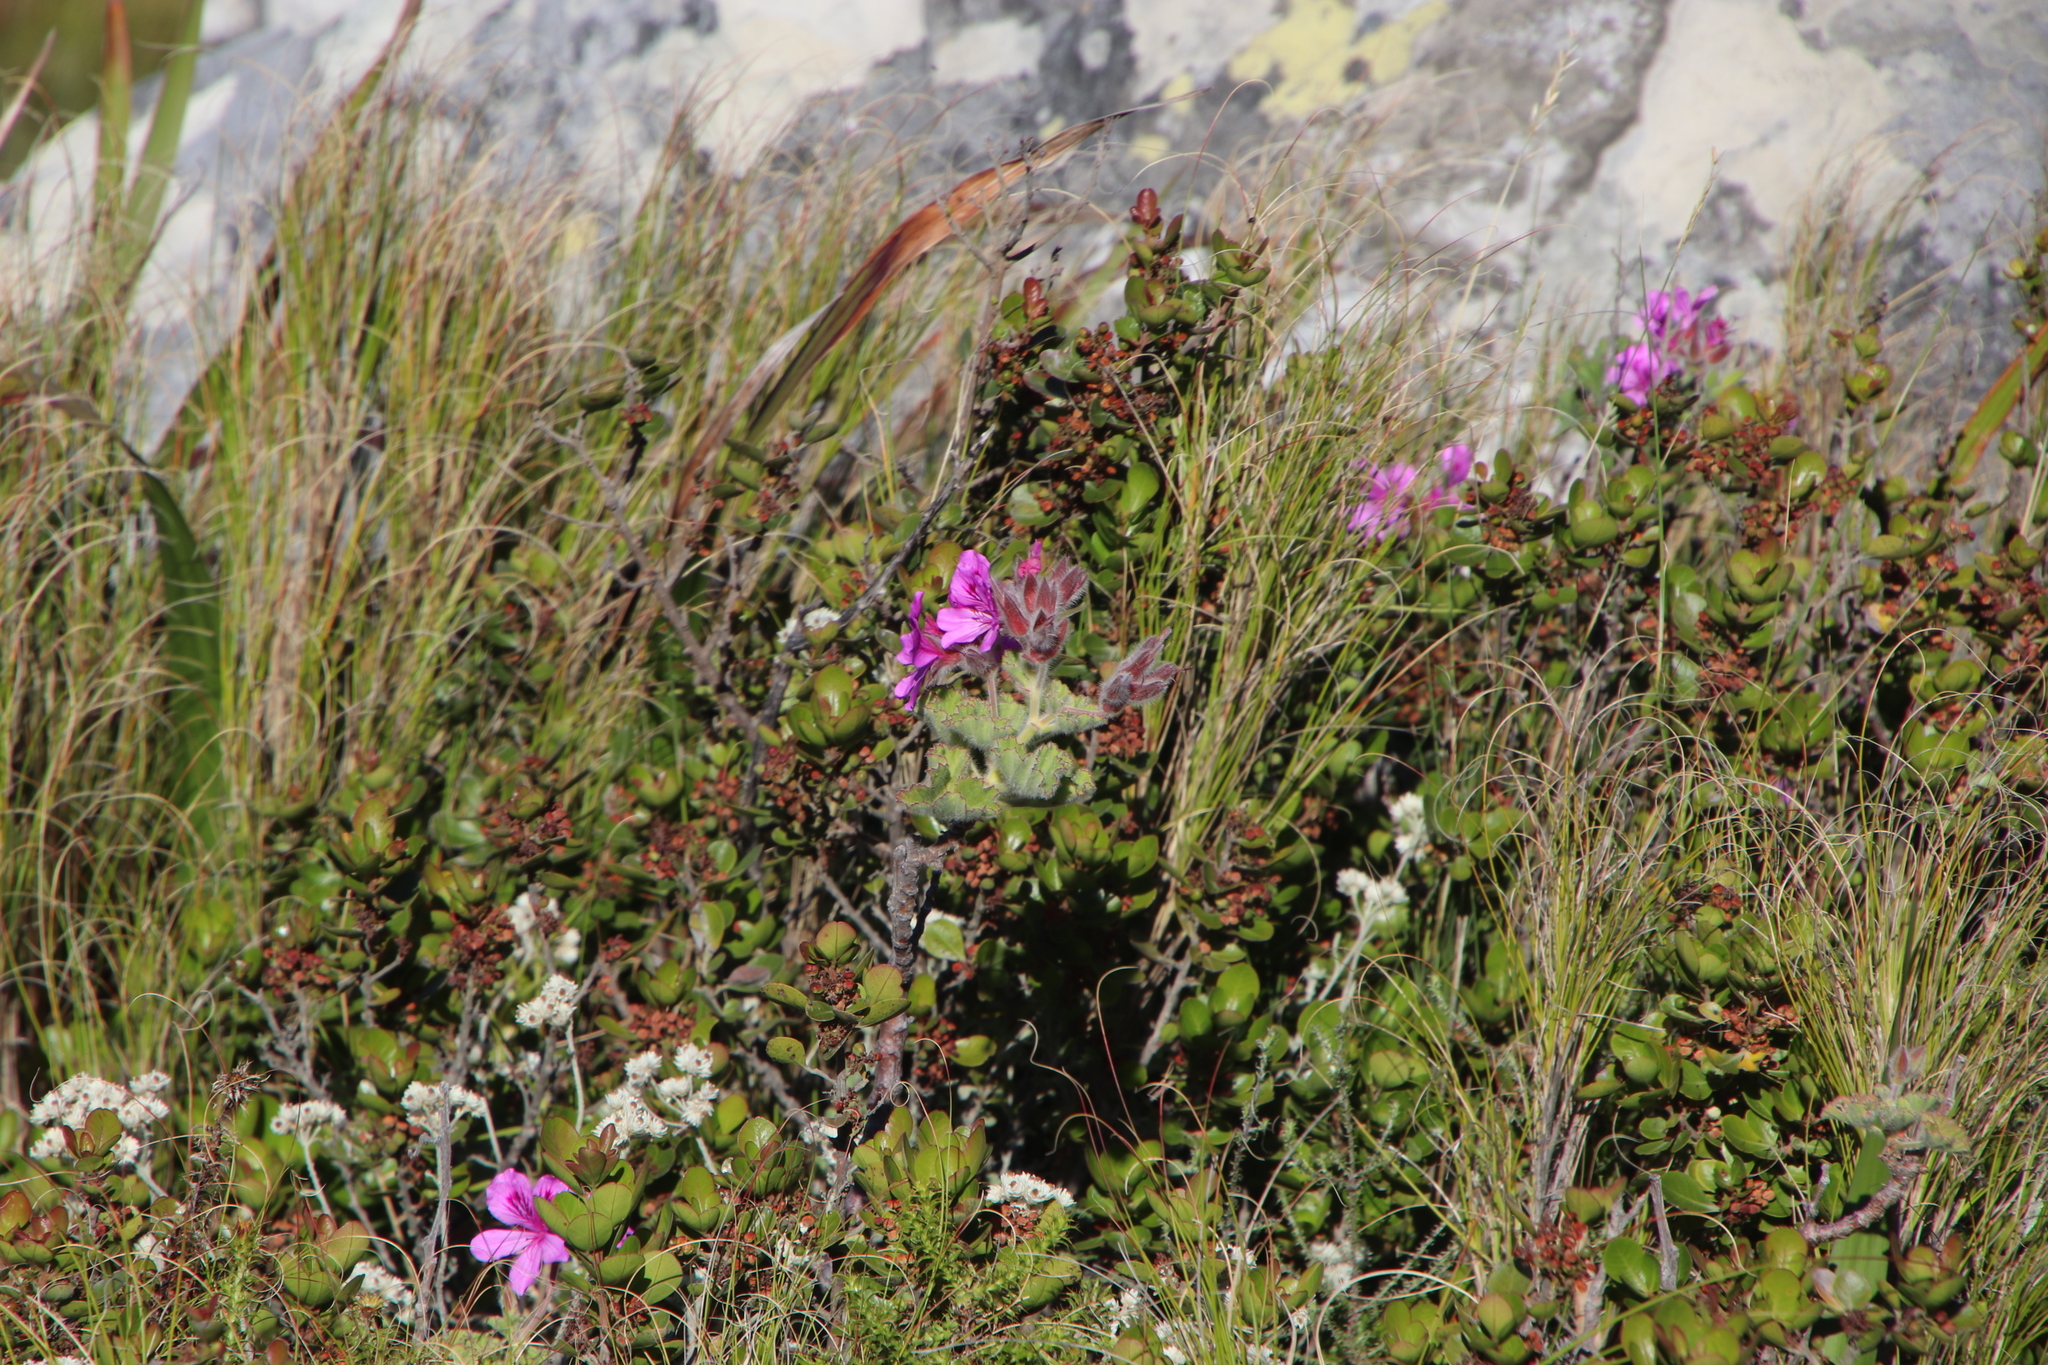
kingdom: Plantae
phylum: Tracheophyta
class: Magnoliopsida
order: Geraniales
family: Geraniaceae
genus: Pelargonium
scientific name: Pelargonium cucullatum
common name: Tree pelargonium
